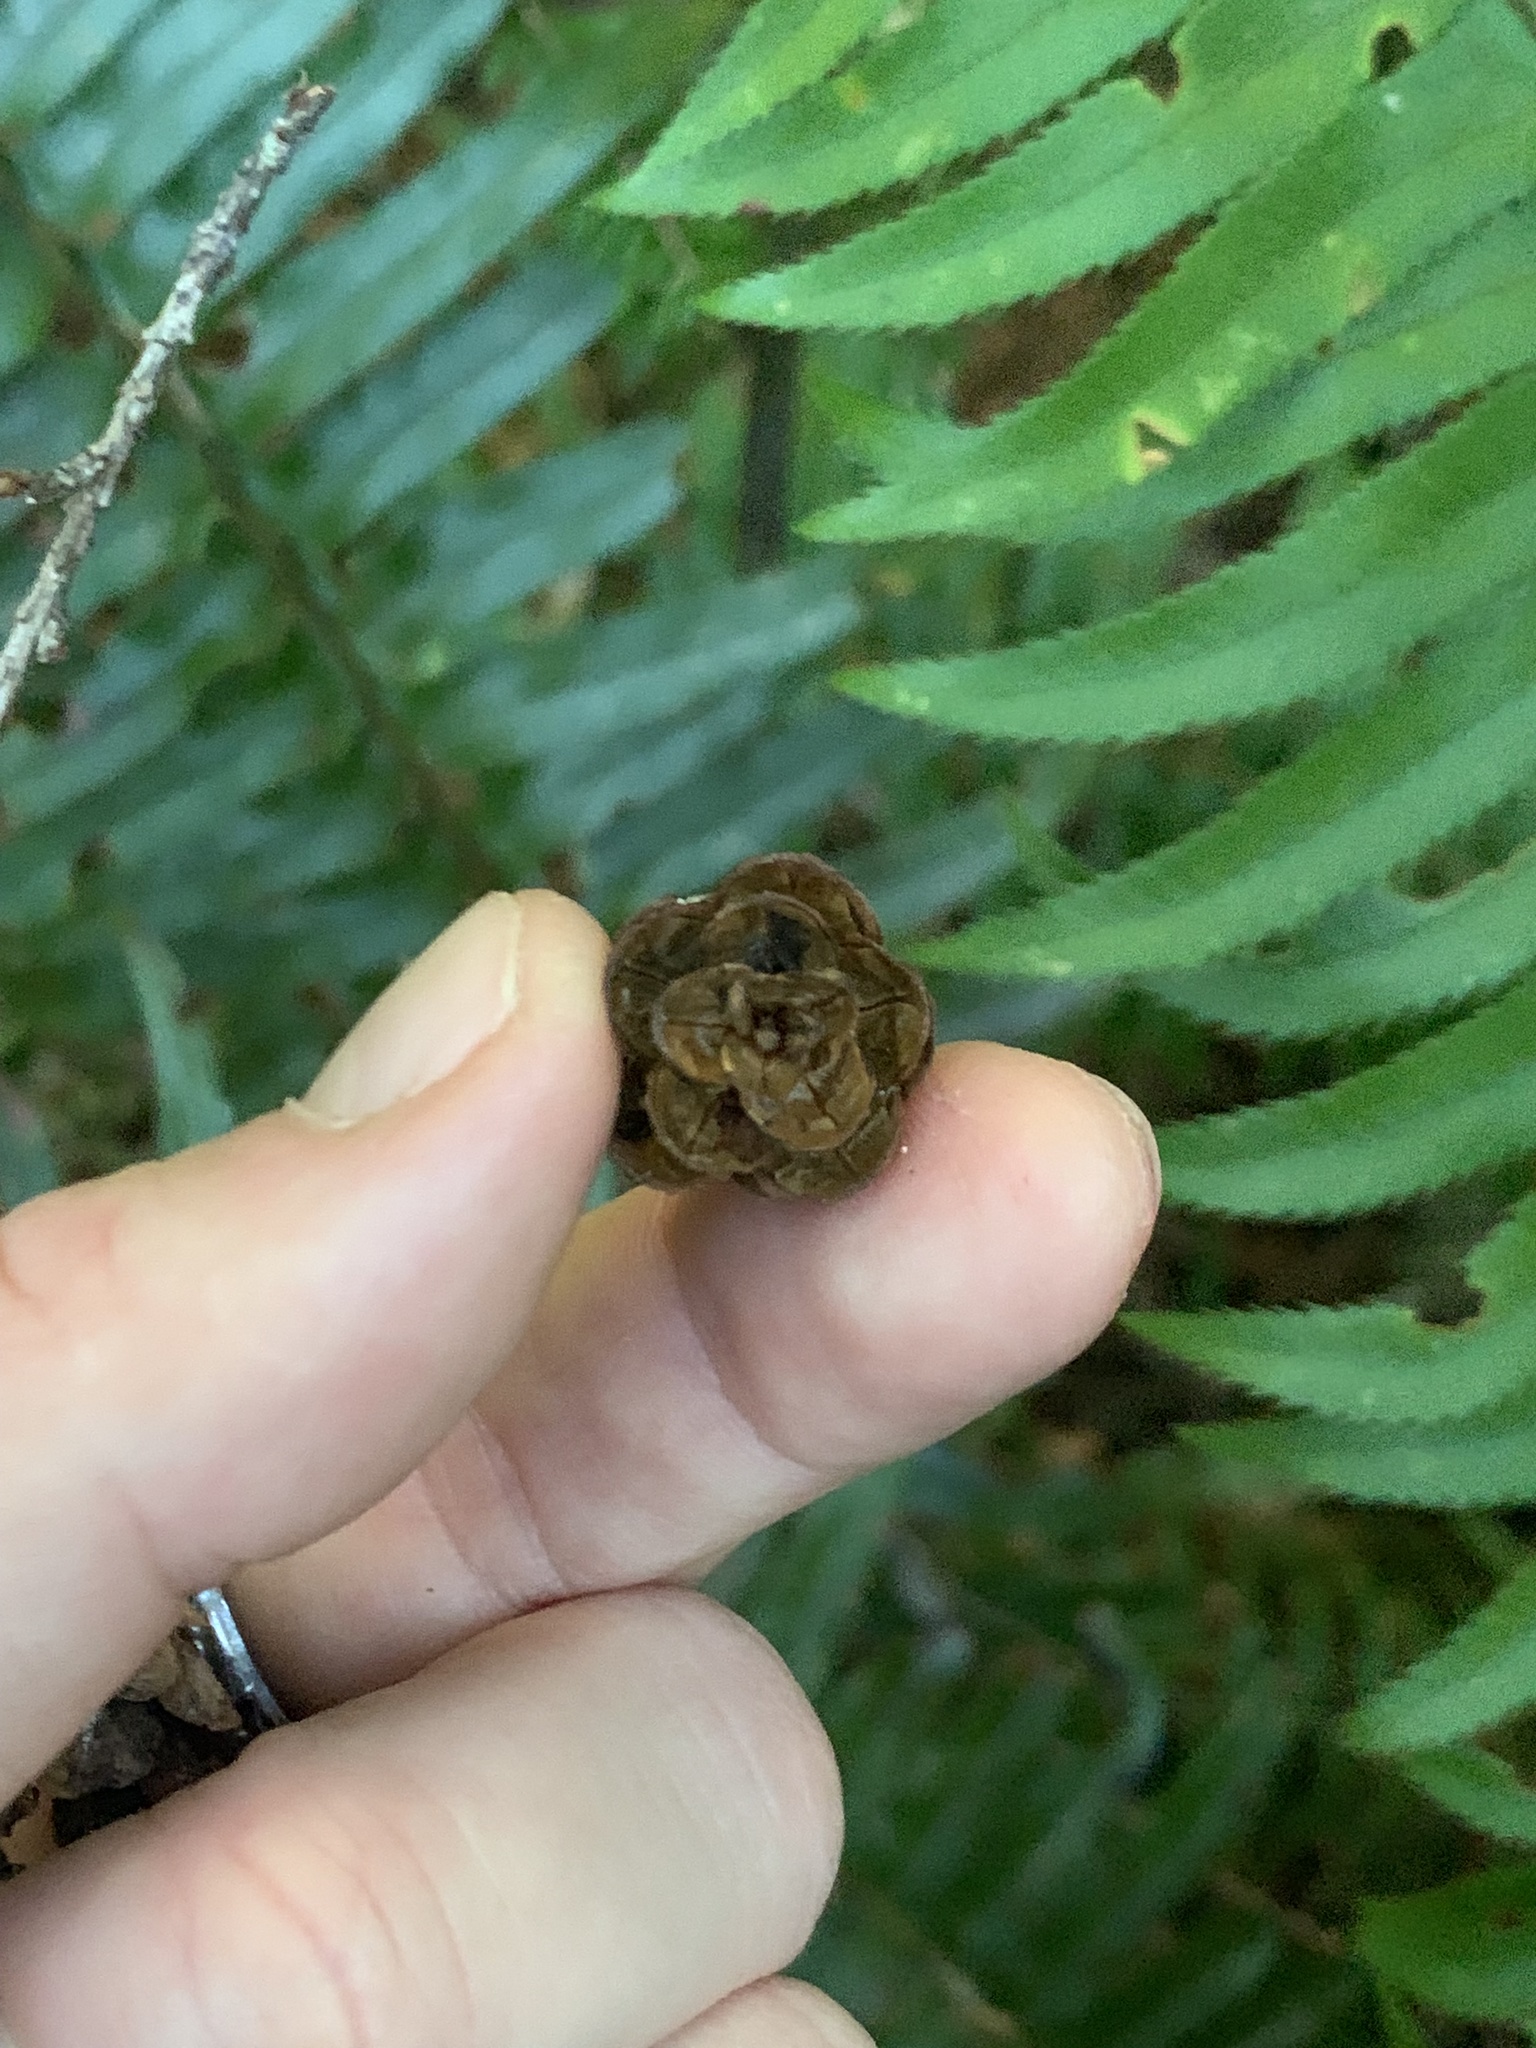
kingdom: Plantae
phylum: Tracheophyta
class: Pinopsida
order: Pinales
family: Pinaceae
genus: Tsuga
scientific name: Tsuga heterophylla
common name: Western hemlock
